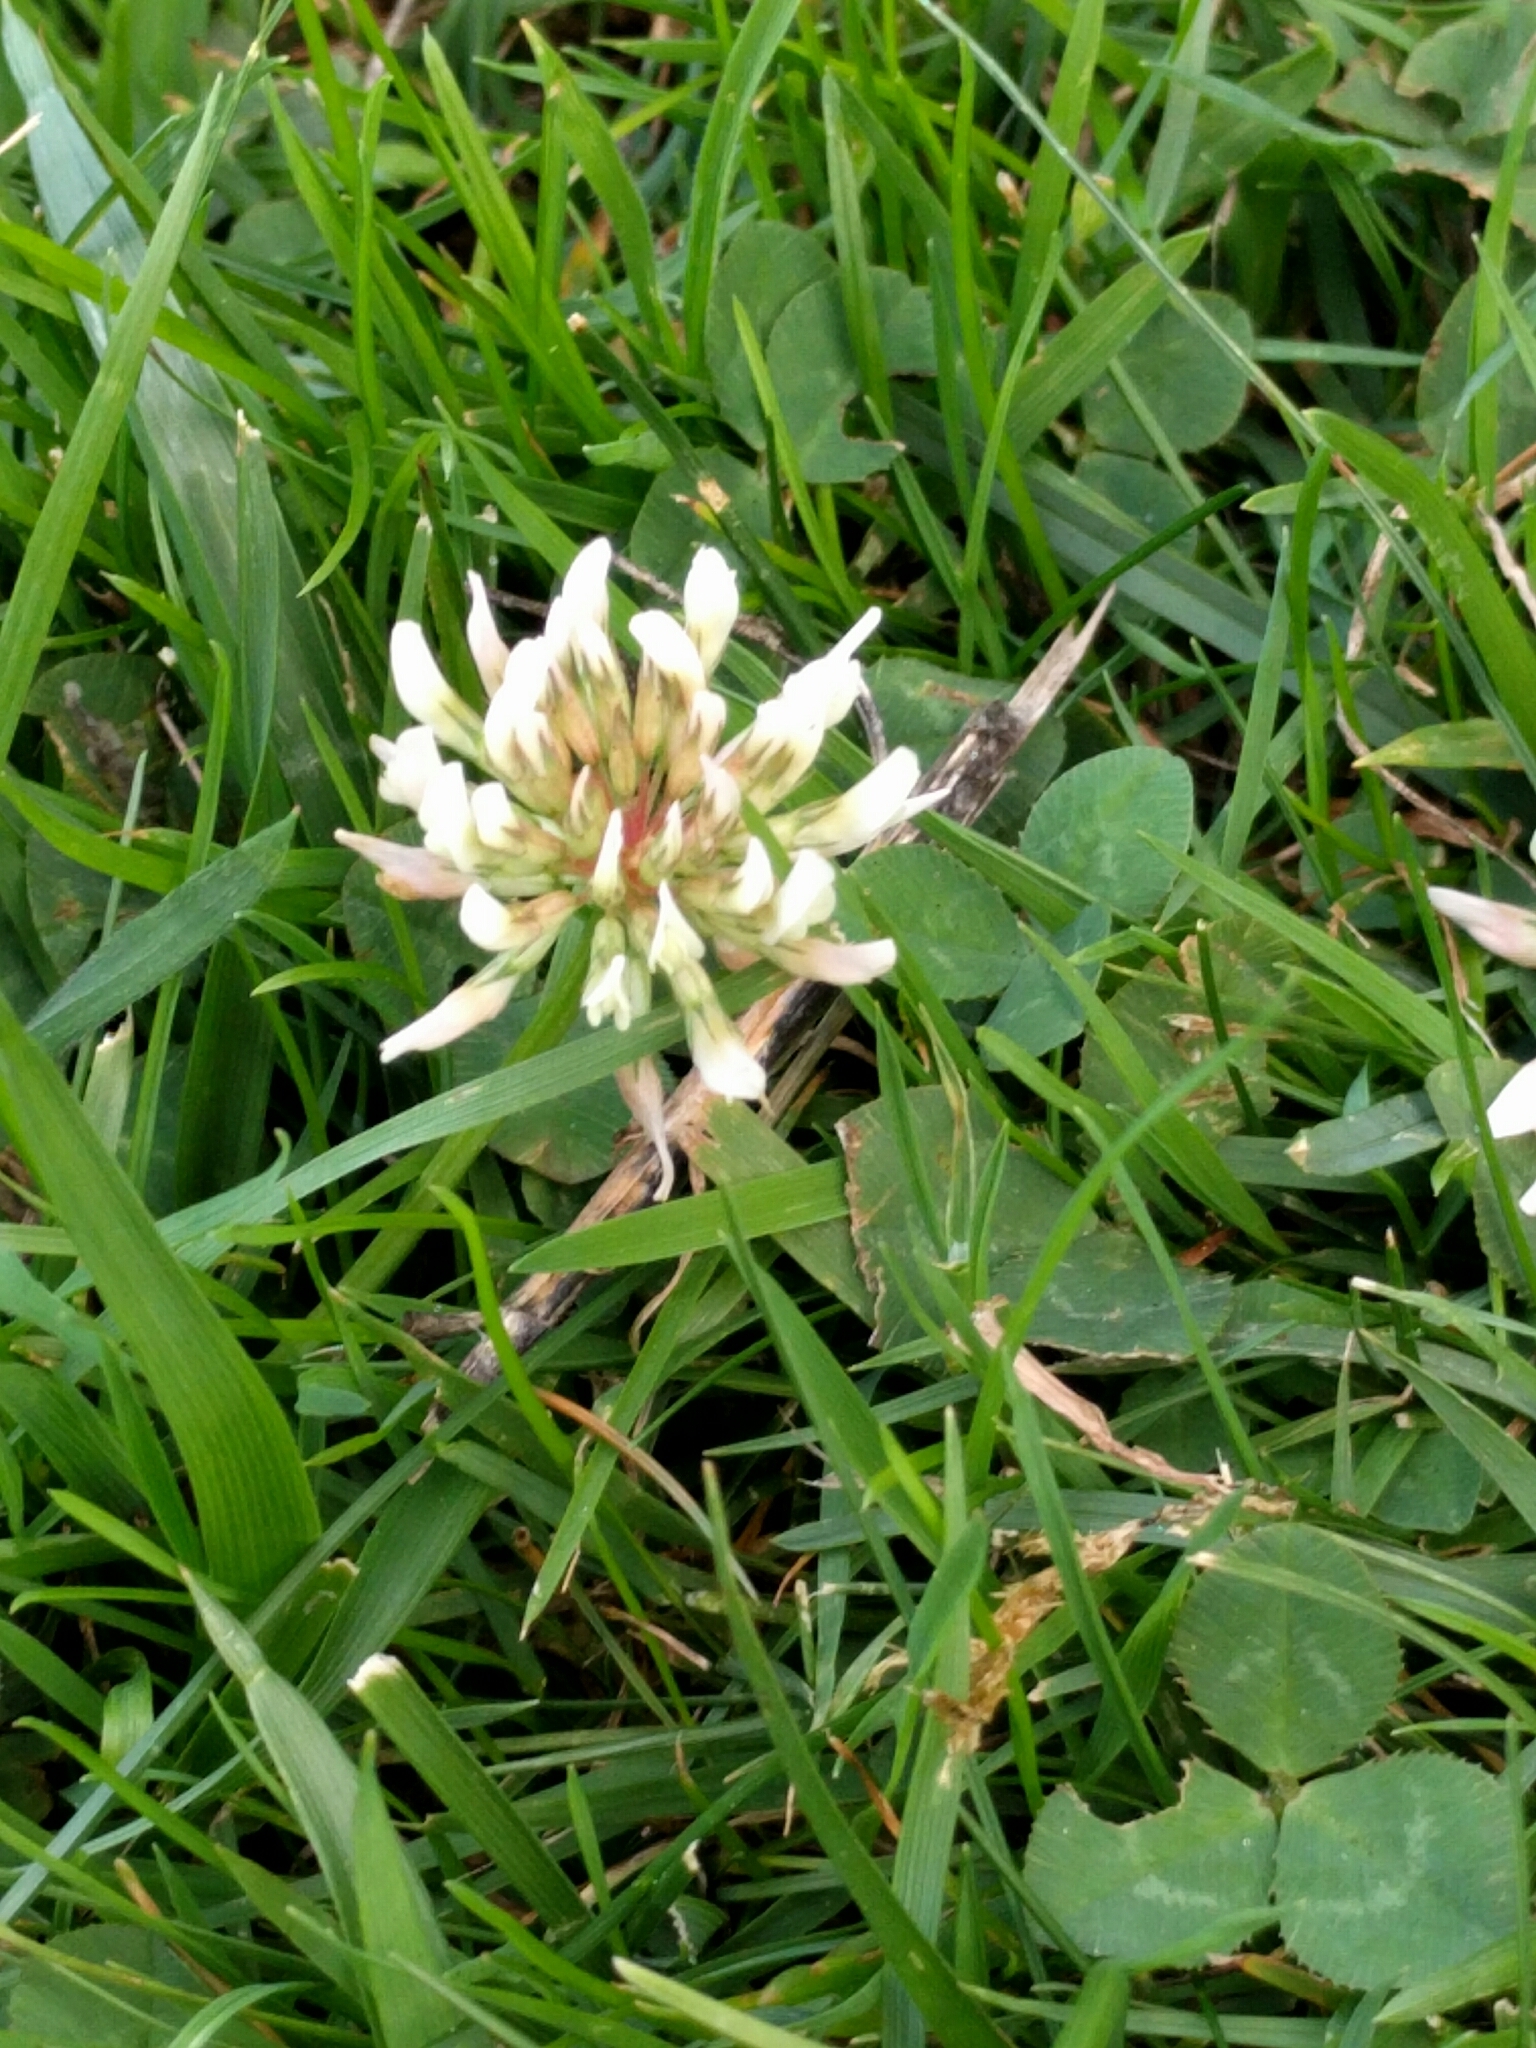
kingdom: Plantae
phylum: Tracheophyta
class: Magnoliopsida
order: Fabales
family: Fabaceae
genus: Trifolium
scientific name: Trifolium repens
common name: White clover
